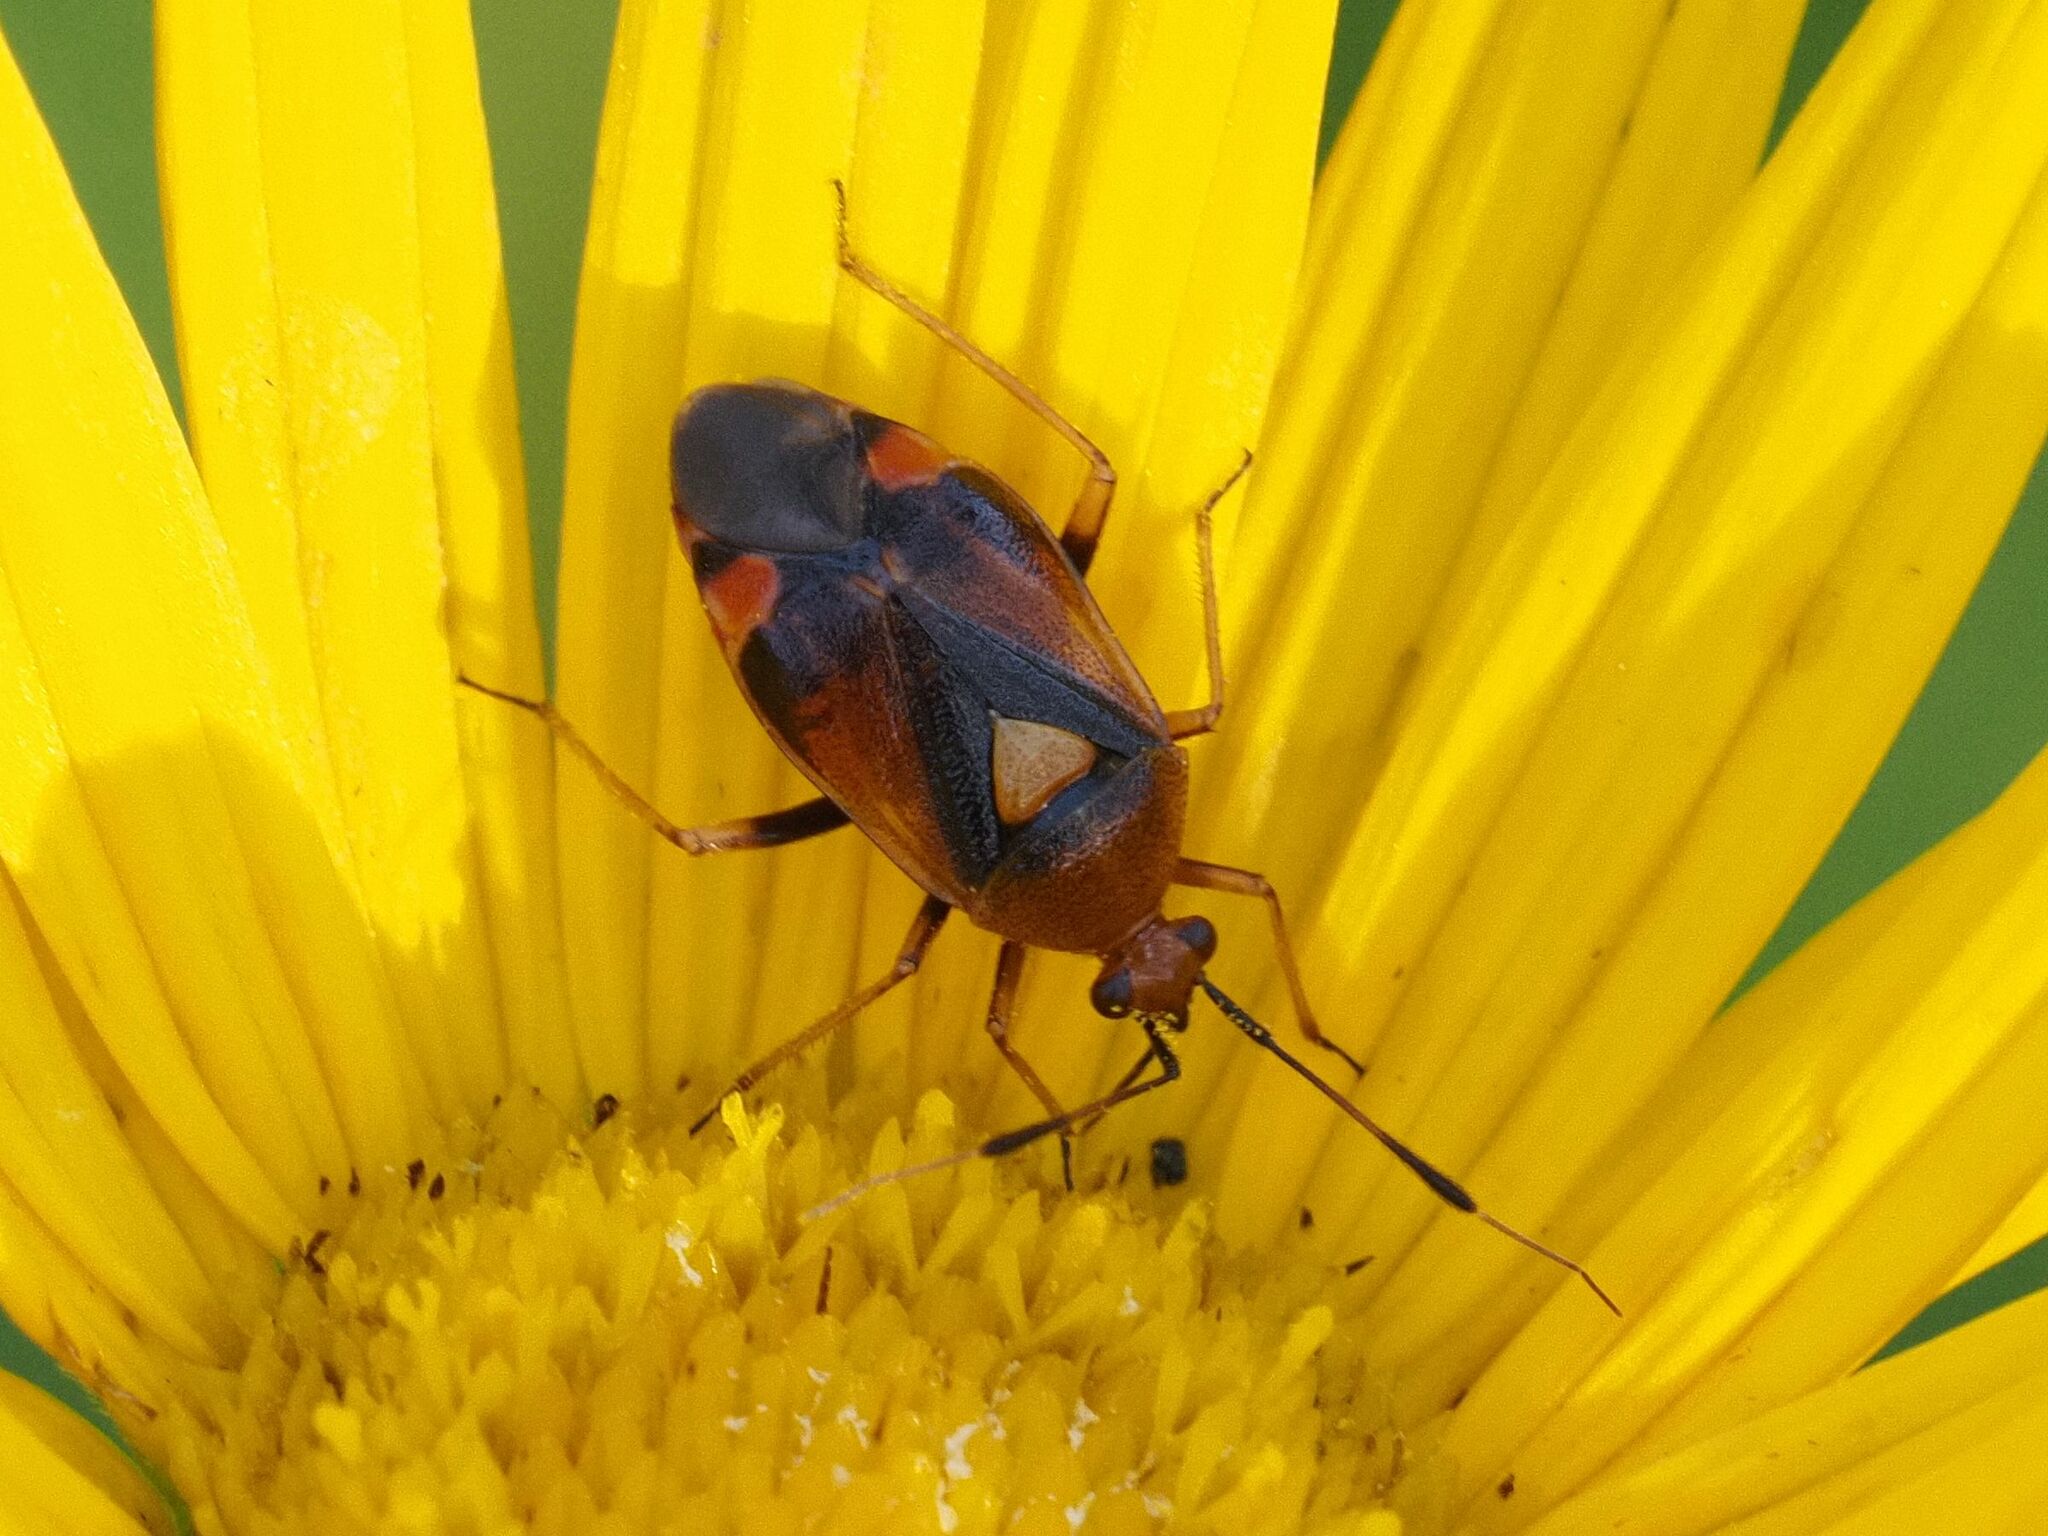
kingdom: Animalia
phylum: Arthropoda
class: Insecta
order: Hemiptera
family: Miridae
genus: Deraeocoris
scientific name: Deraeocoris ruber
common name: Plant bug
